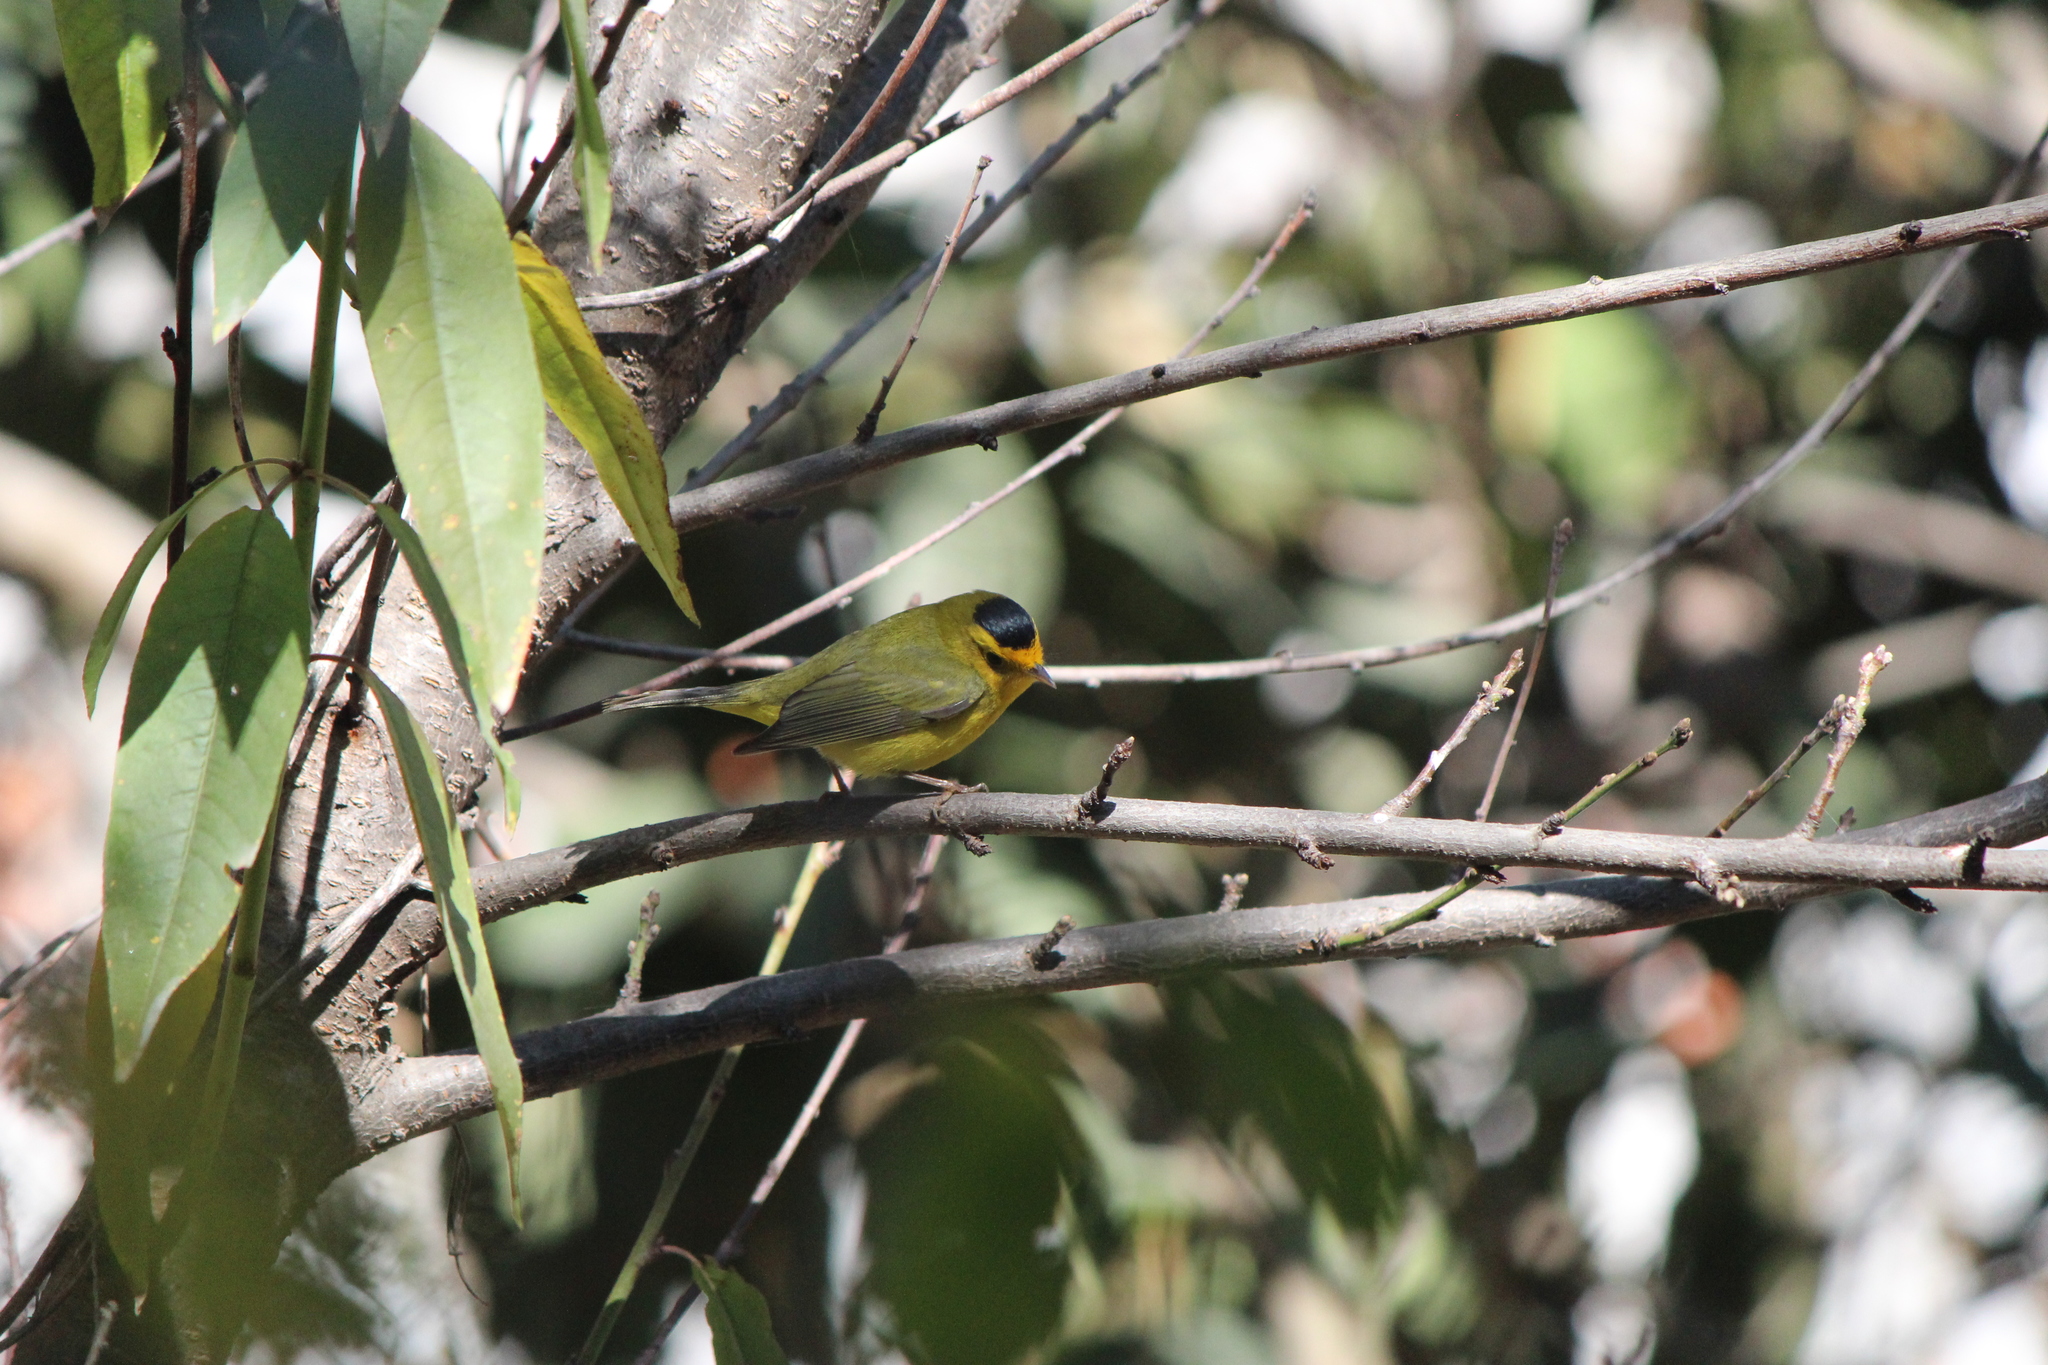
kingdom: Animalia
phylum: Chordata
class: Aves
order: Passeriformes
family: Parulidae
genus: Cardellina
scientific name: Cardellina pusilla
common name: Wilson's warbler
